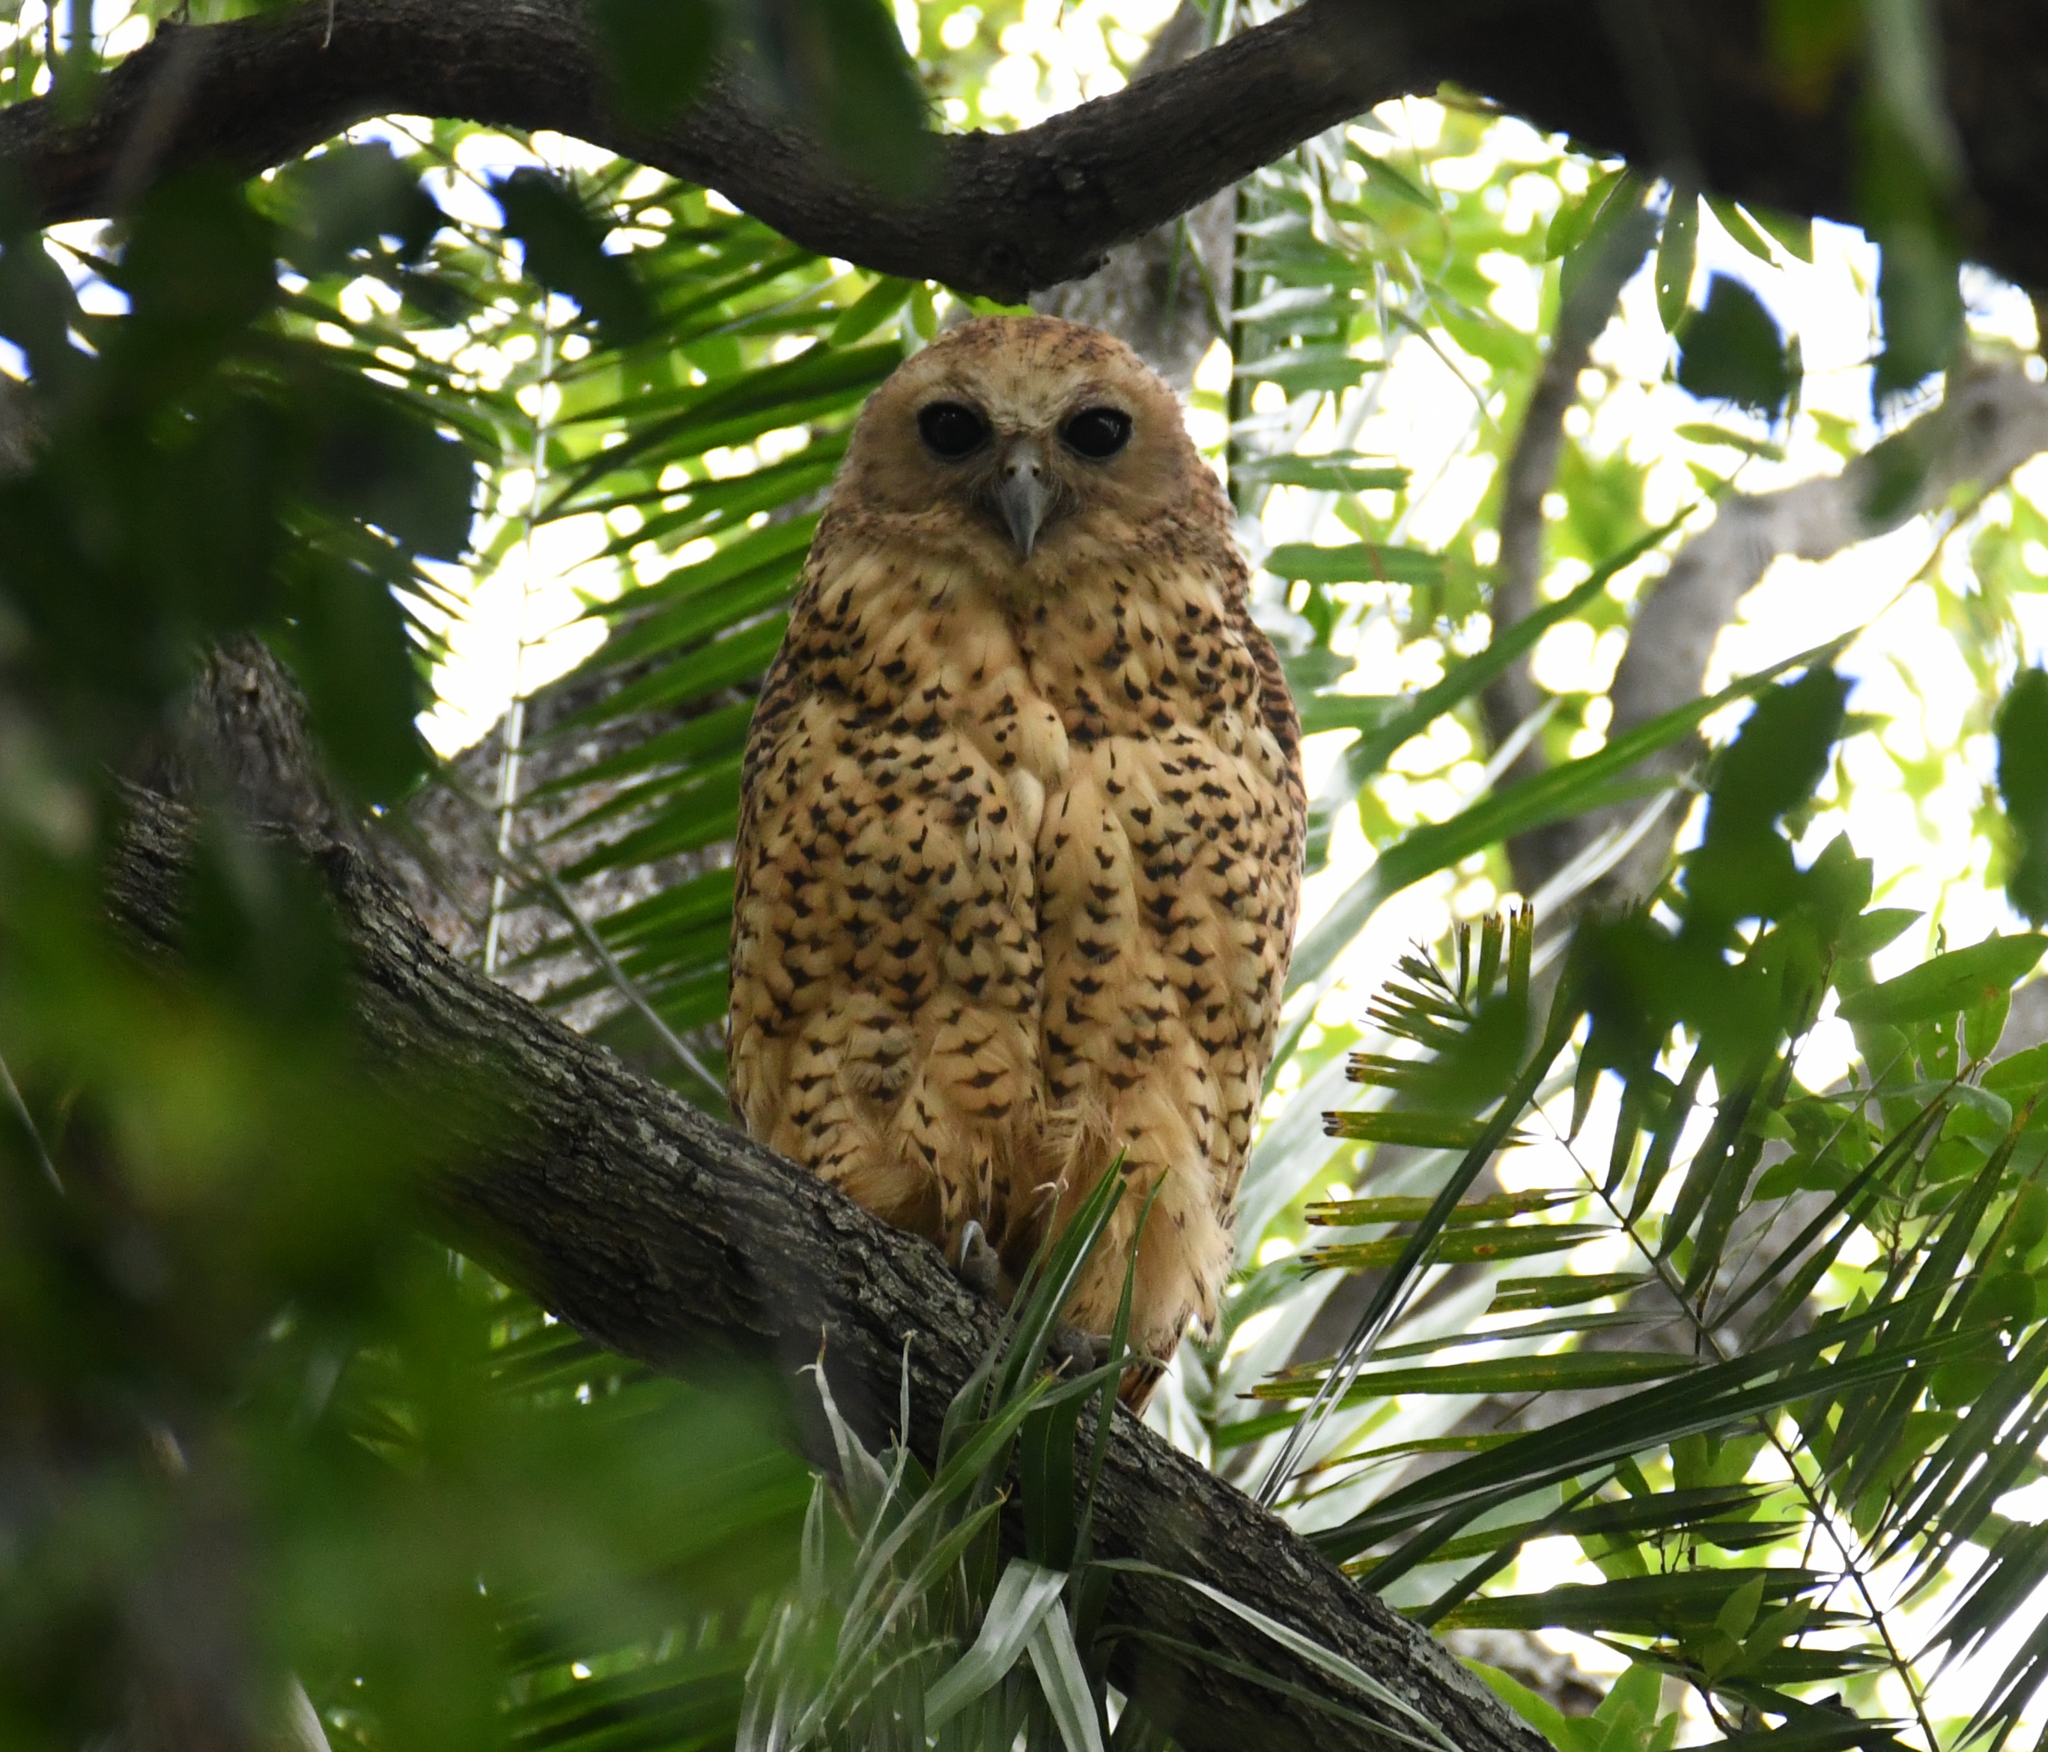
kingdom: Animalia
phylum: Chordata
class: Aves
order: Strigiformes
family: Strigidae
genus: Scotopelia
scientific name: Scotopelia peli
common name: Pel's fishing owl
